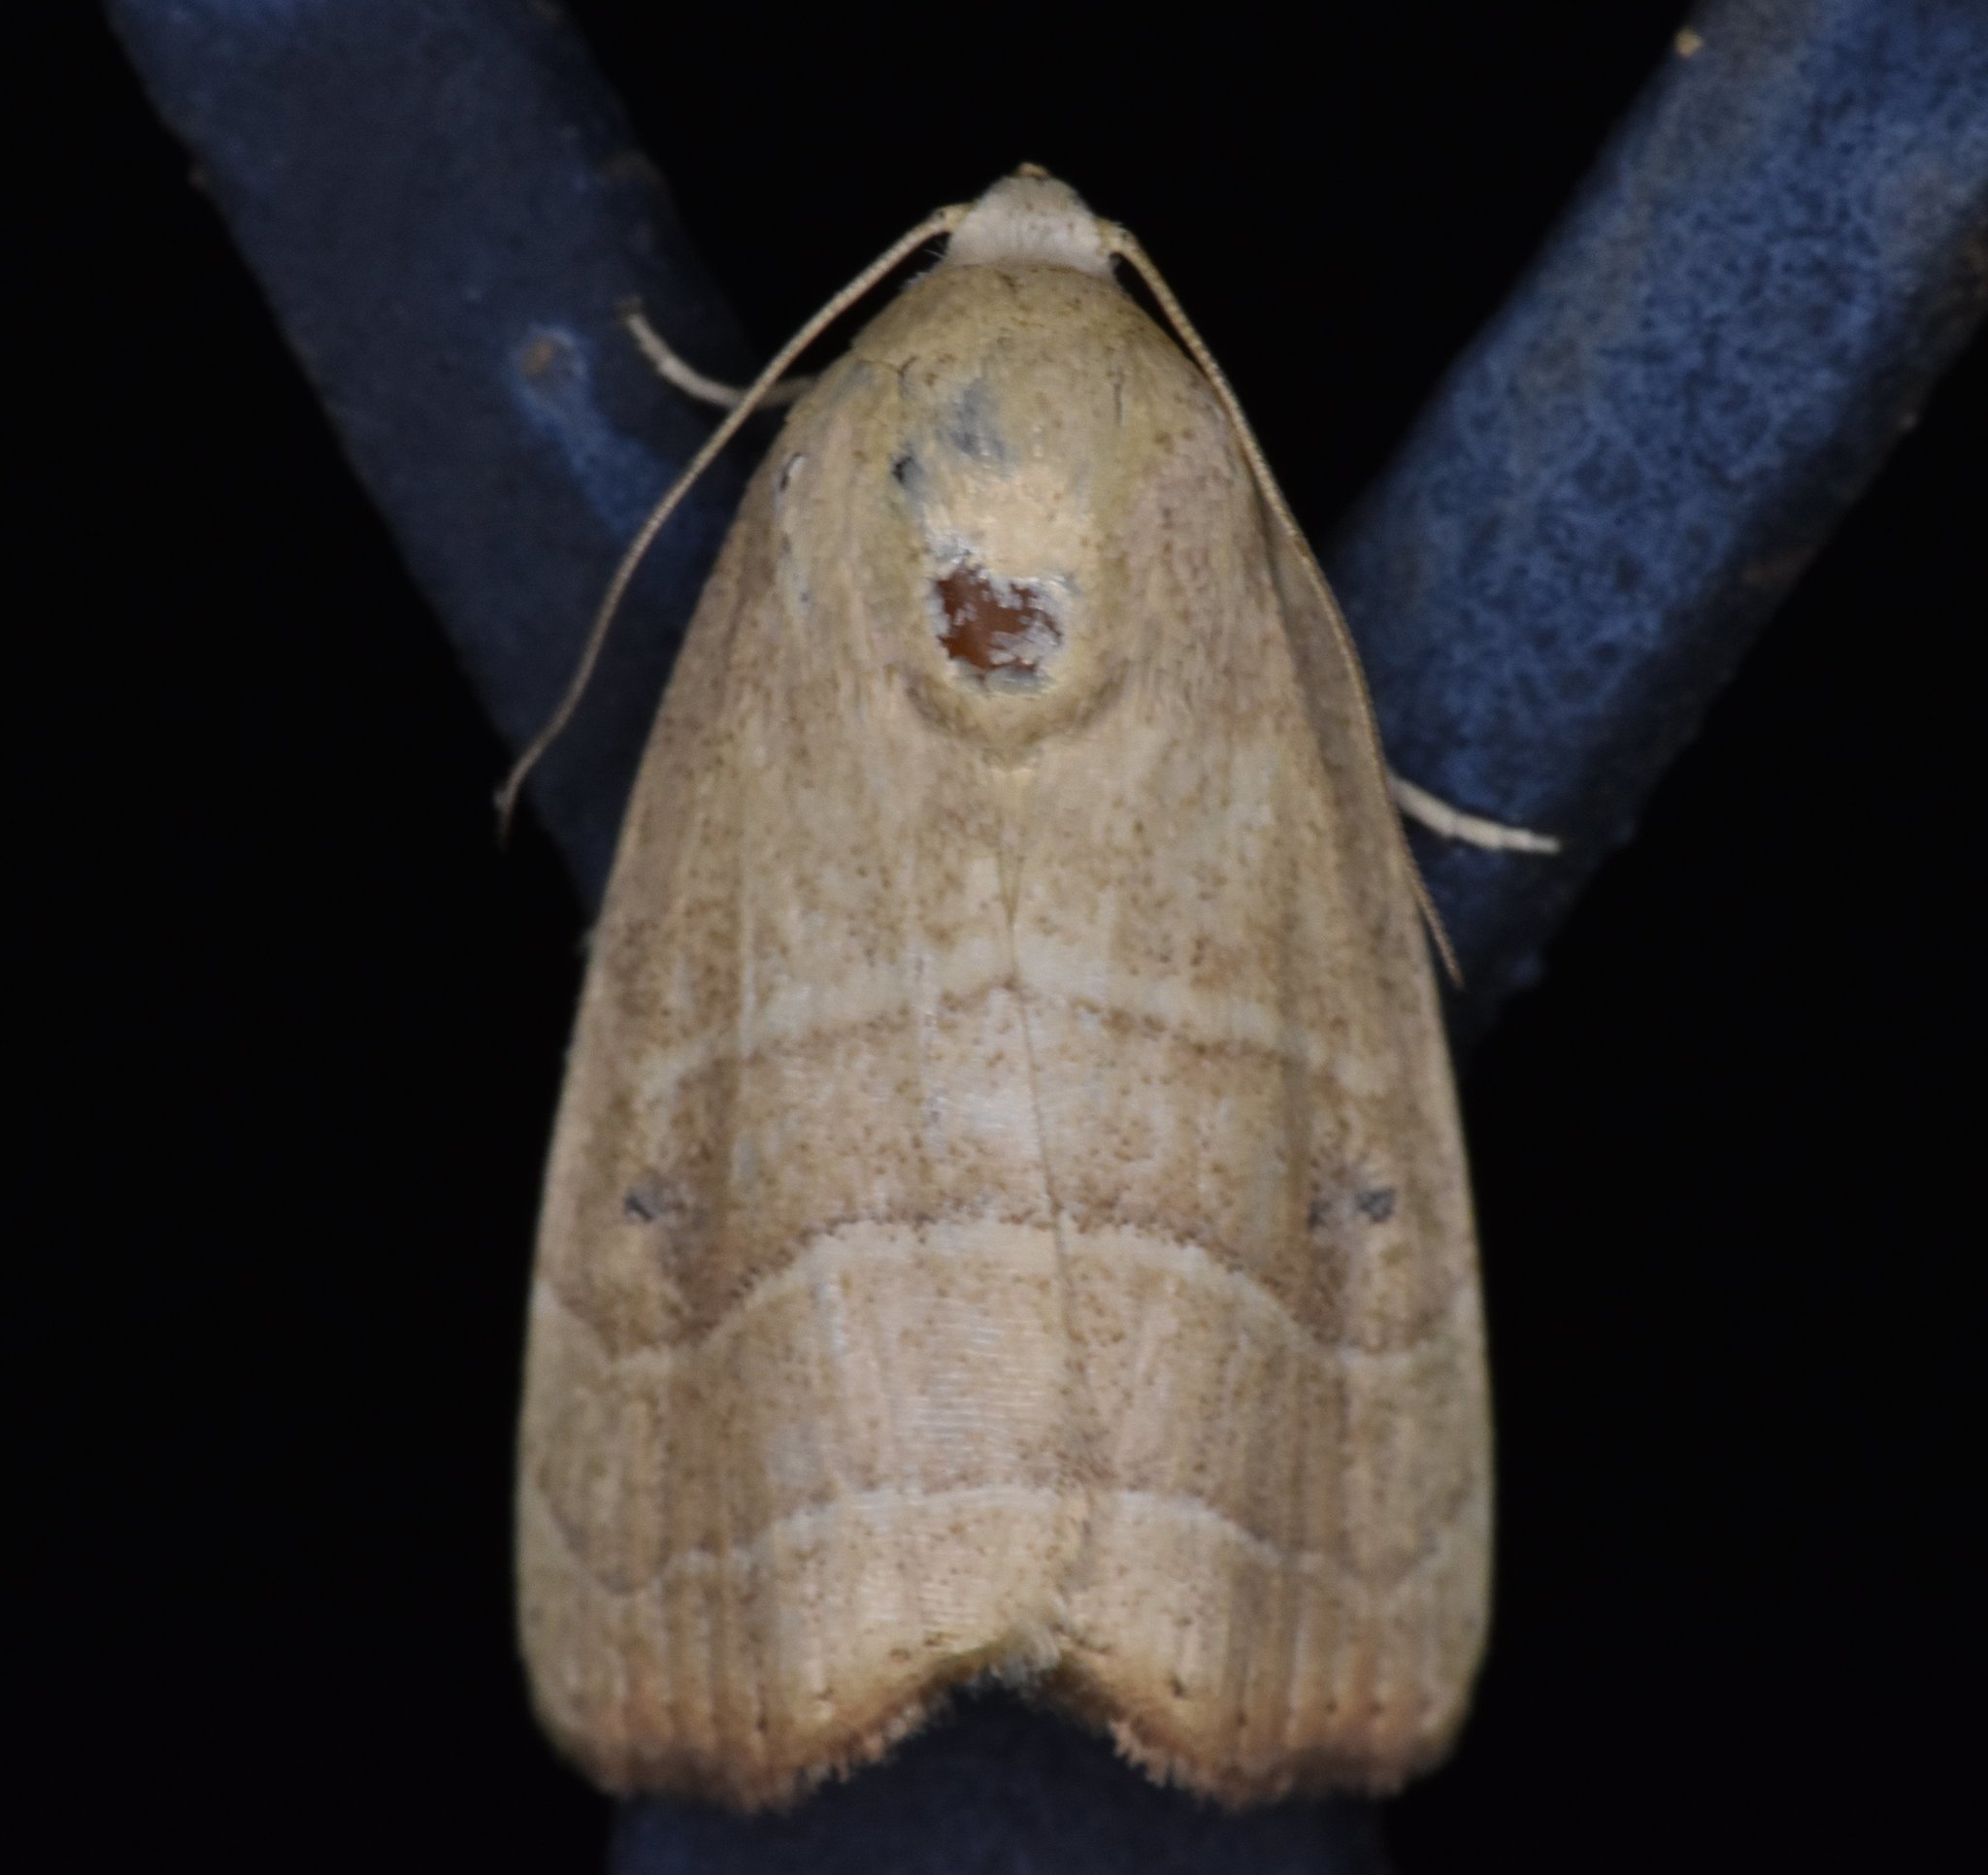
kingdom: Animalia
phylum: Arthropoda
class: Insecta
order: Lepidoptera
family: Noctuidae
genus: Bagisara
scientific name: Bagisara repanda
